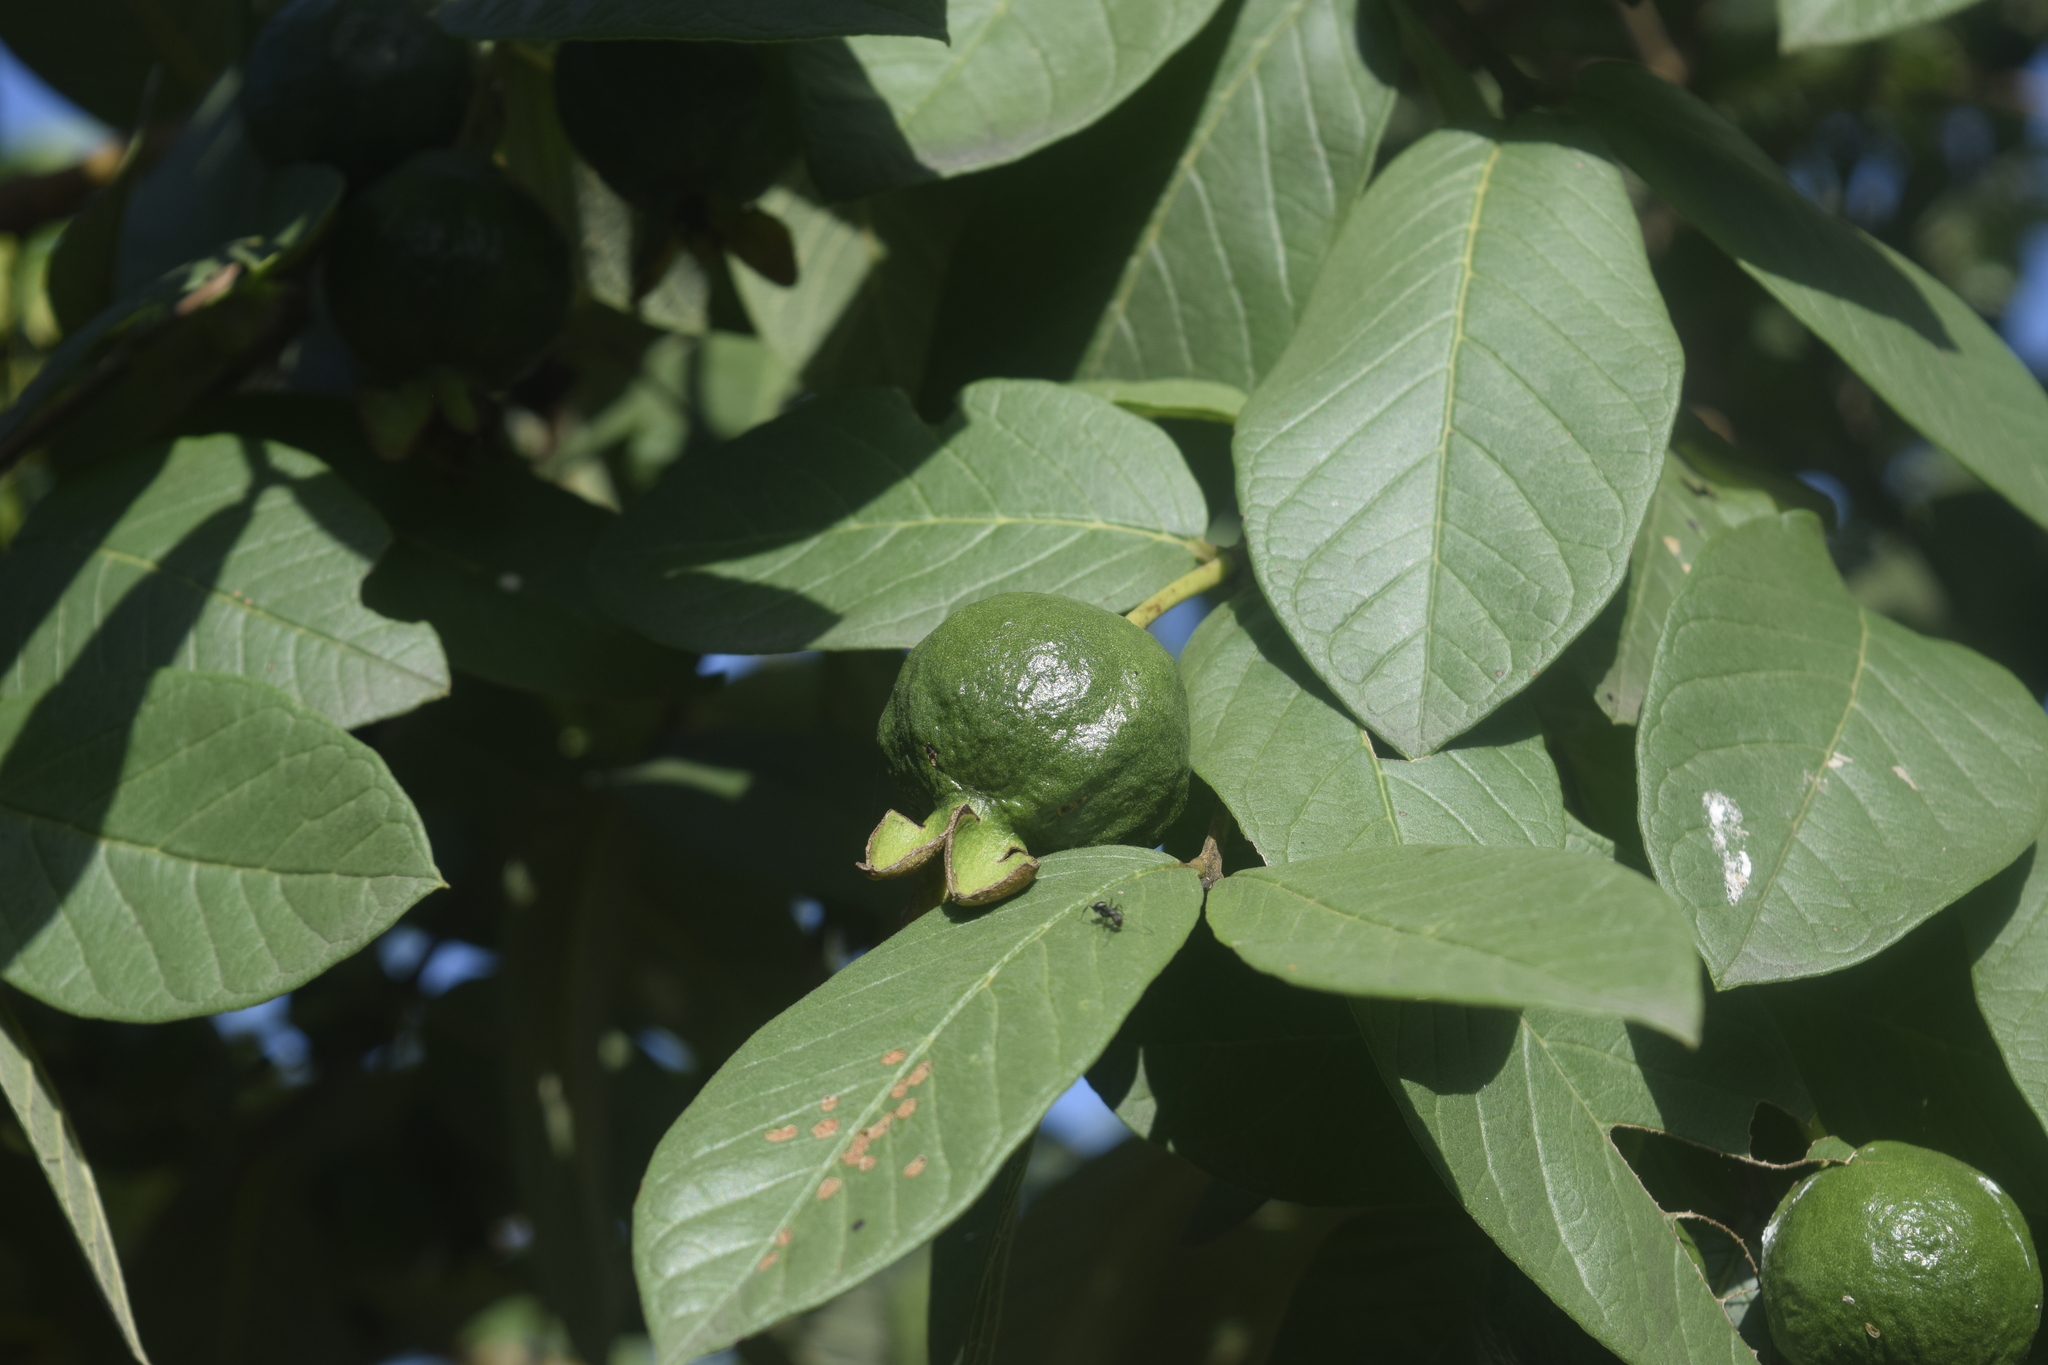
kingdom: Plantae
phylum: Tracheophyta
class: Magnoliopsida
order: Myrtales
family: Myrtaceae
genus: Psidium
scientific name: Psidium guajava
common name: Guava
